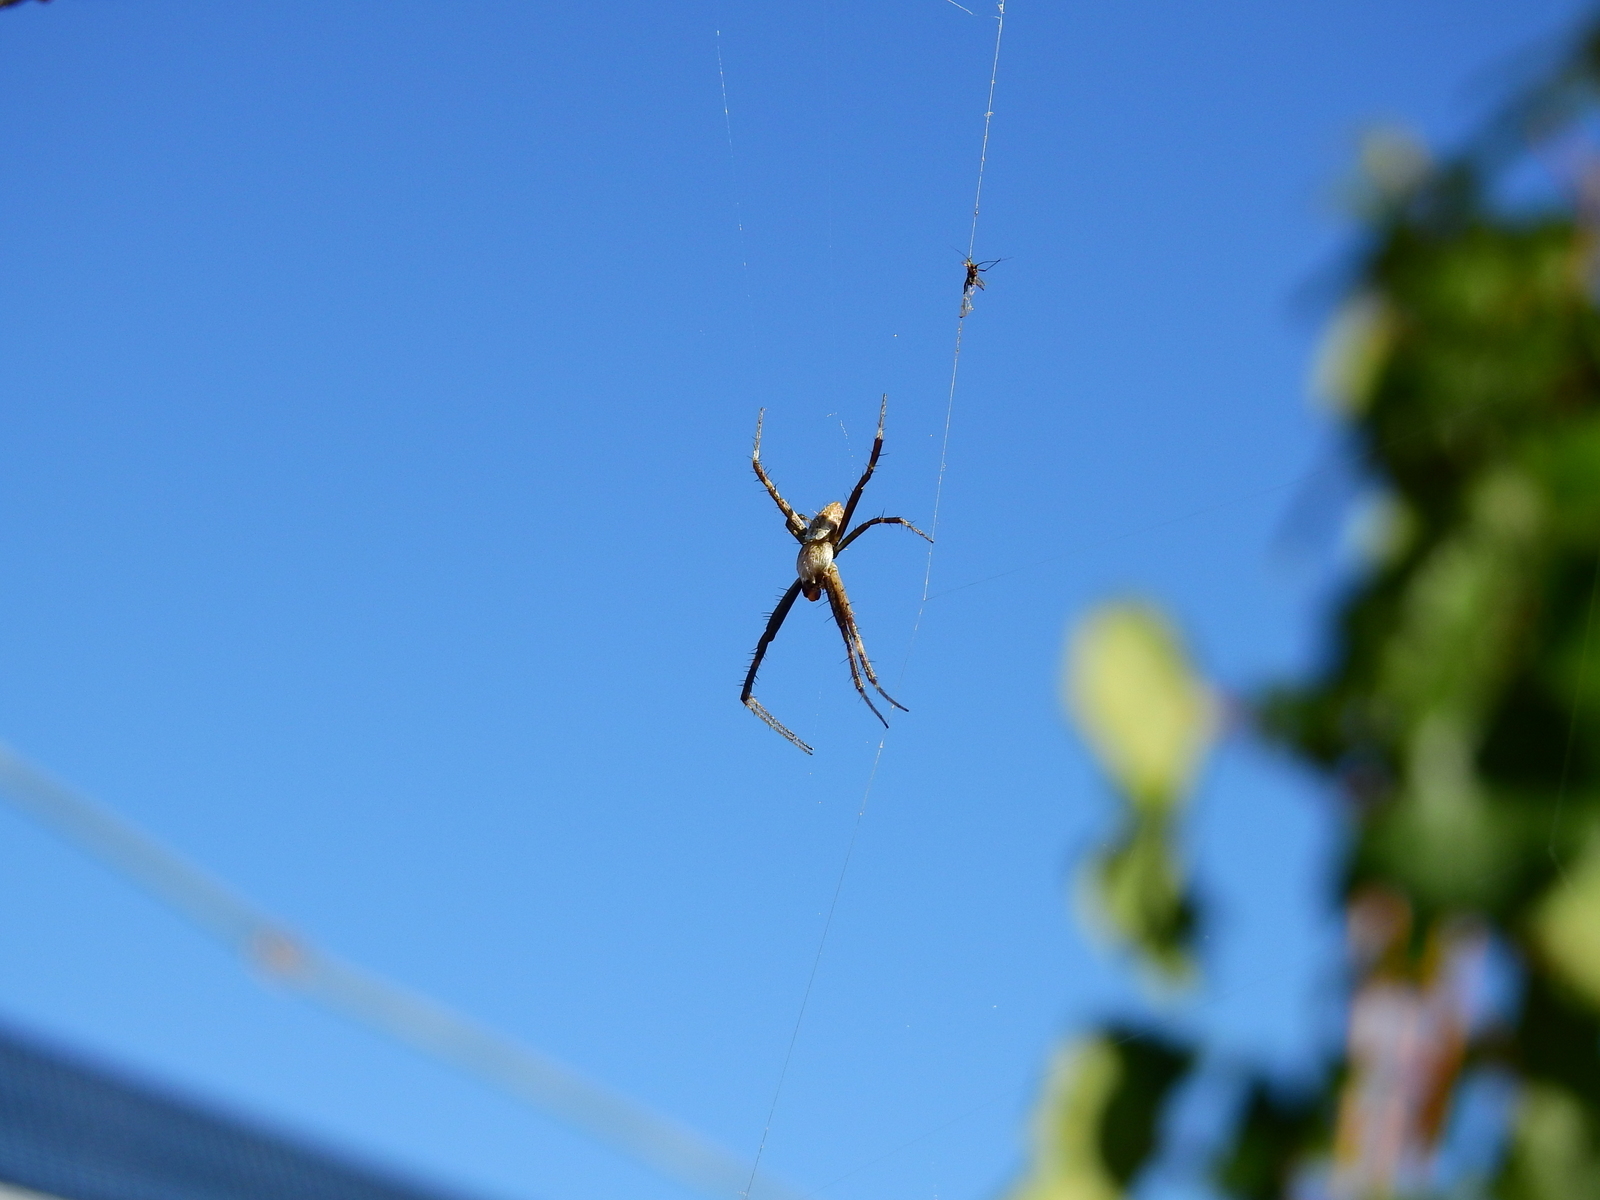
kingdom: Animalia
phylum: Arthropoda
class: Arachnida
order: Araneae
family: Araneidae
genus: Argiope
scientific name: Argiope argentata
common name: Orb weavers
